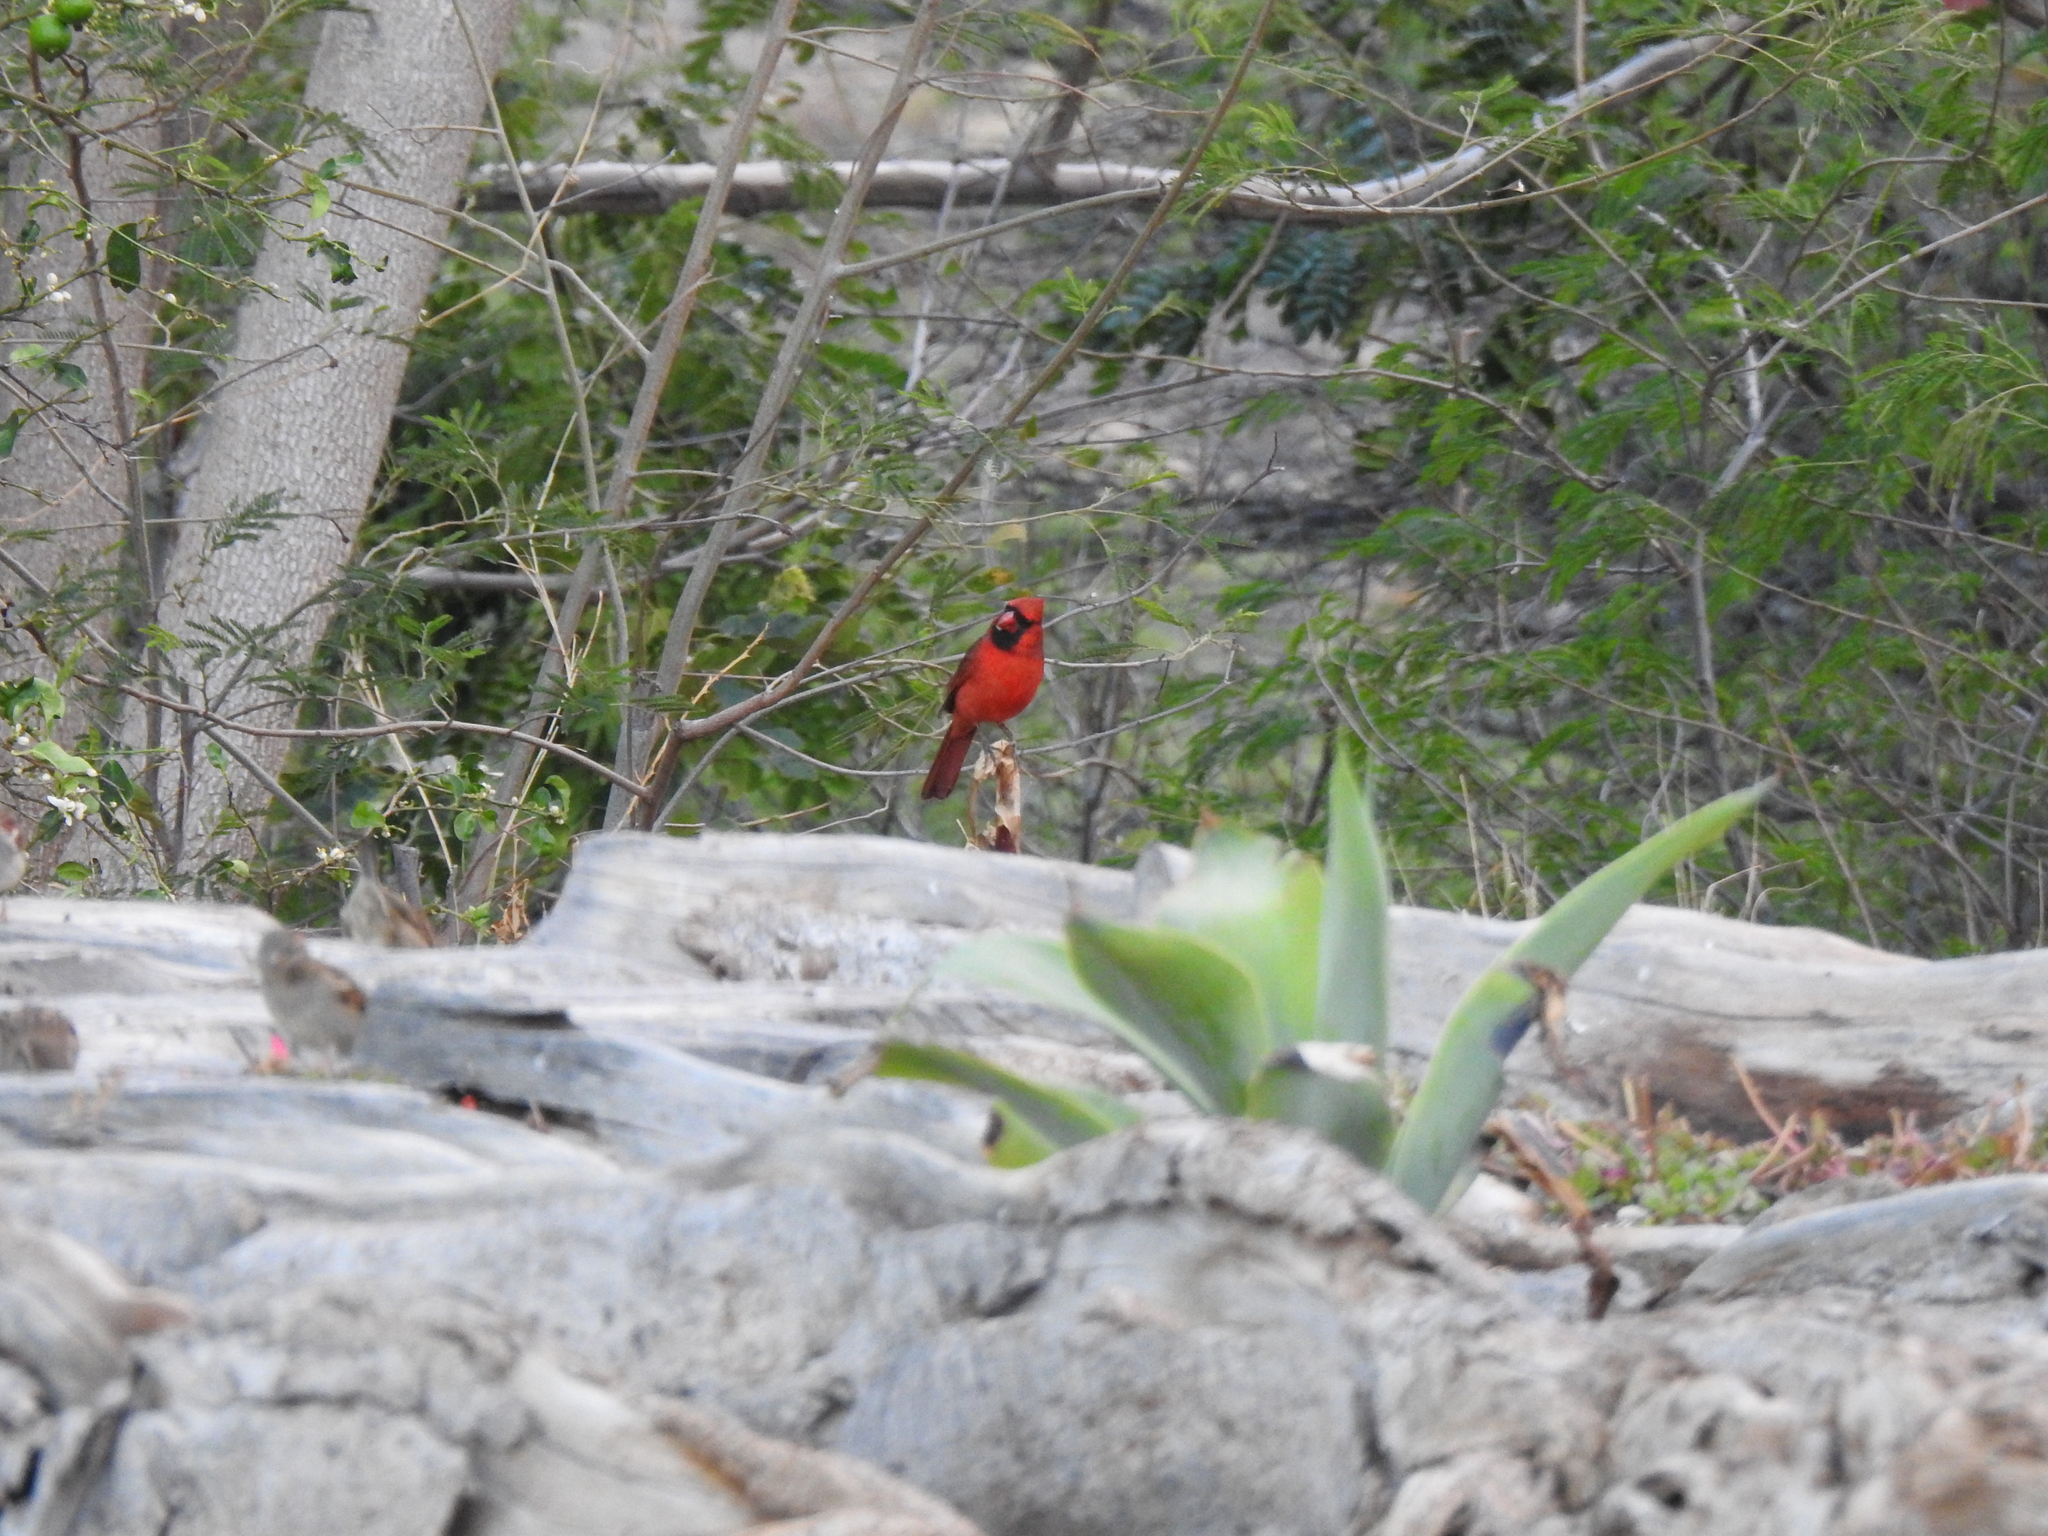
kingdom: Animalia
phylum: Chordata
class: Aves
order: Passeriformes
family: Cardinalidae
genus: Cardinalis
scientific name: Cardinalis cardinalis
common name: Northern cardinal
